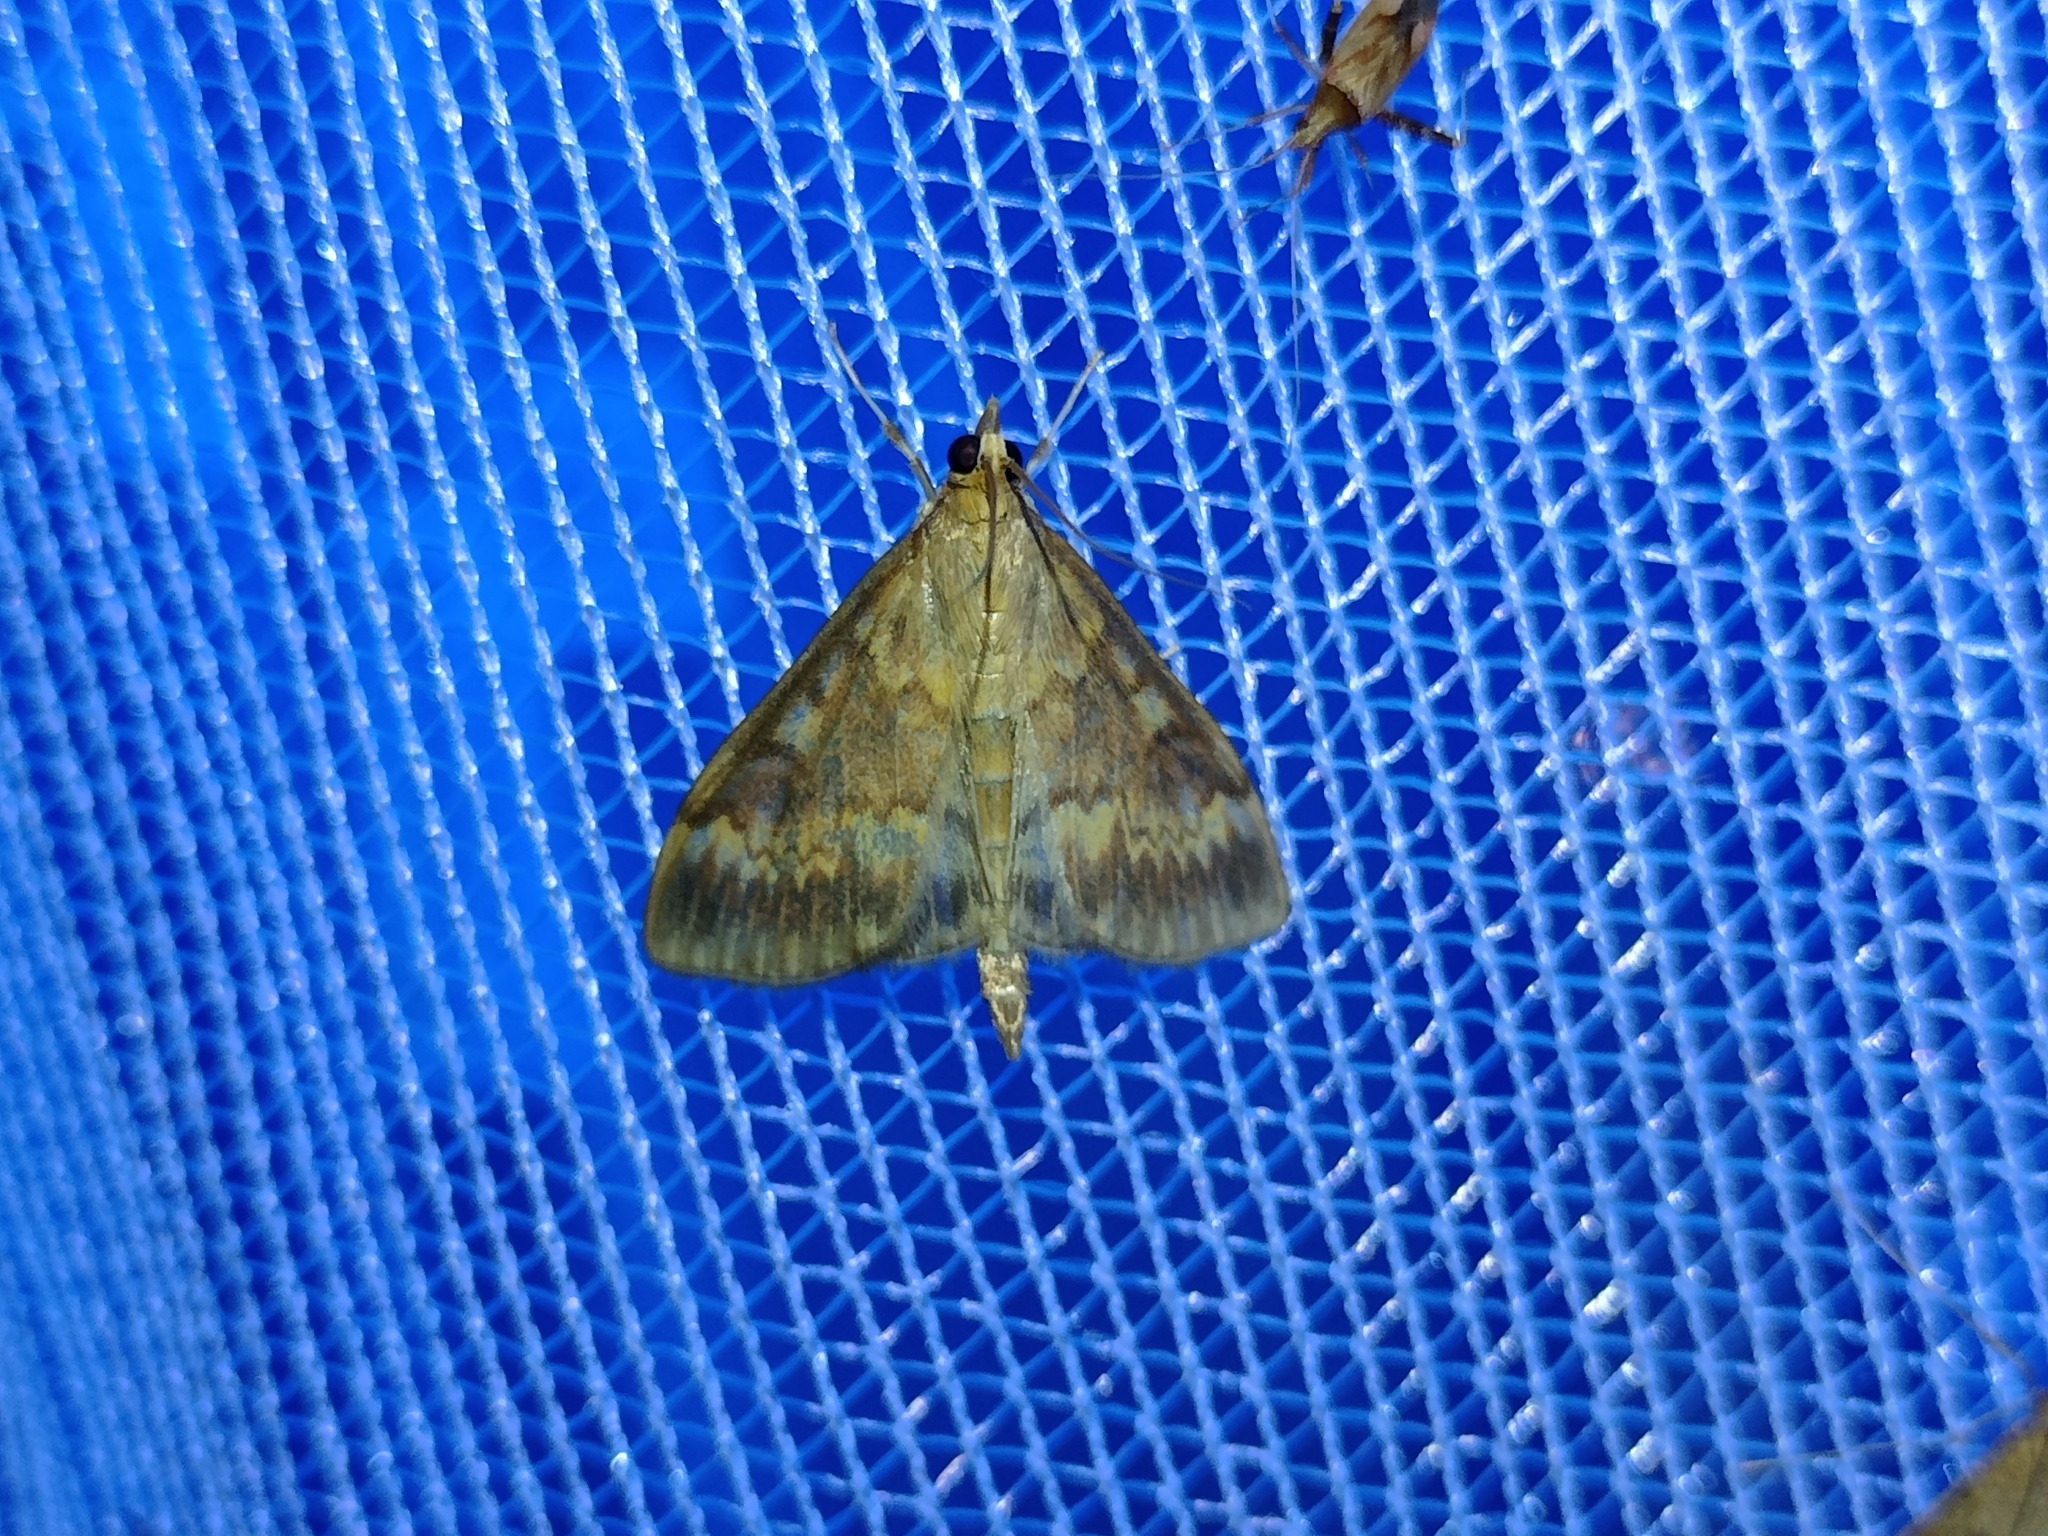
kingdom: Animalia
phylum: Arthropoda
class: Insecta
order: Lepidoptera
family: Crambidae
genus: Ostrinia
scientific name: Ostrinia nubilalis
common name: European corn borer
